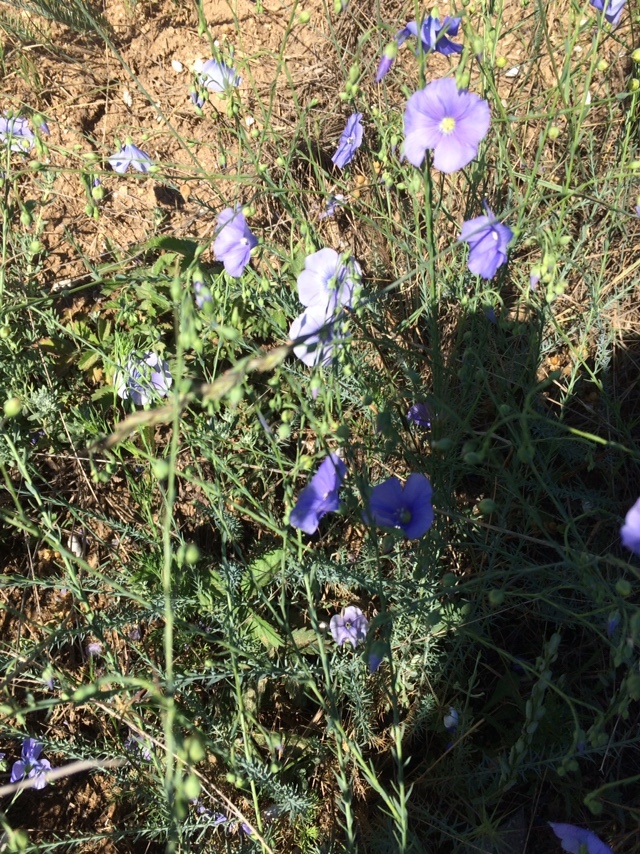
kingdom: Plantae
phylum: Tracheophyta
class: Magnoliopsida
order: Malpighiales
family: Linaceae
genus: Linum
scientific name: Linum austriacum
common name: Austrian flax
